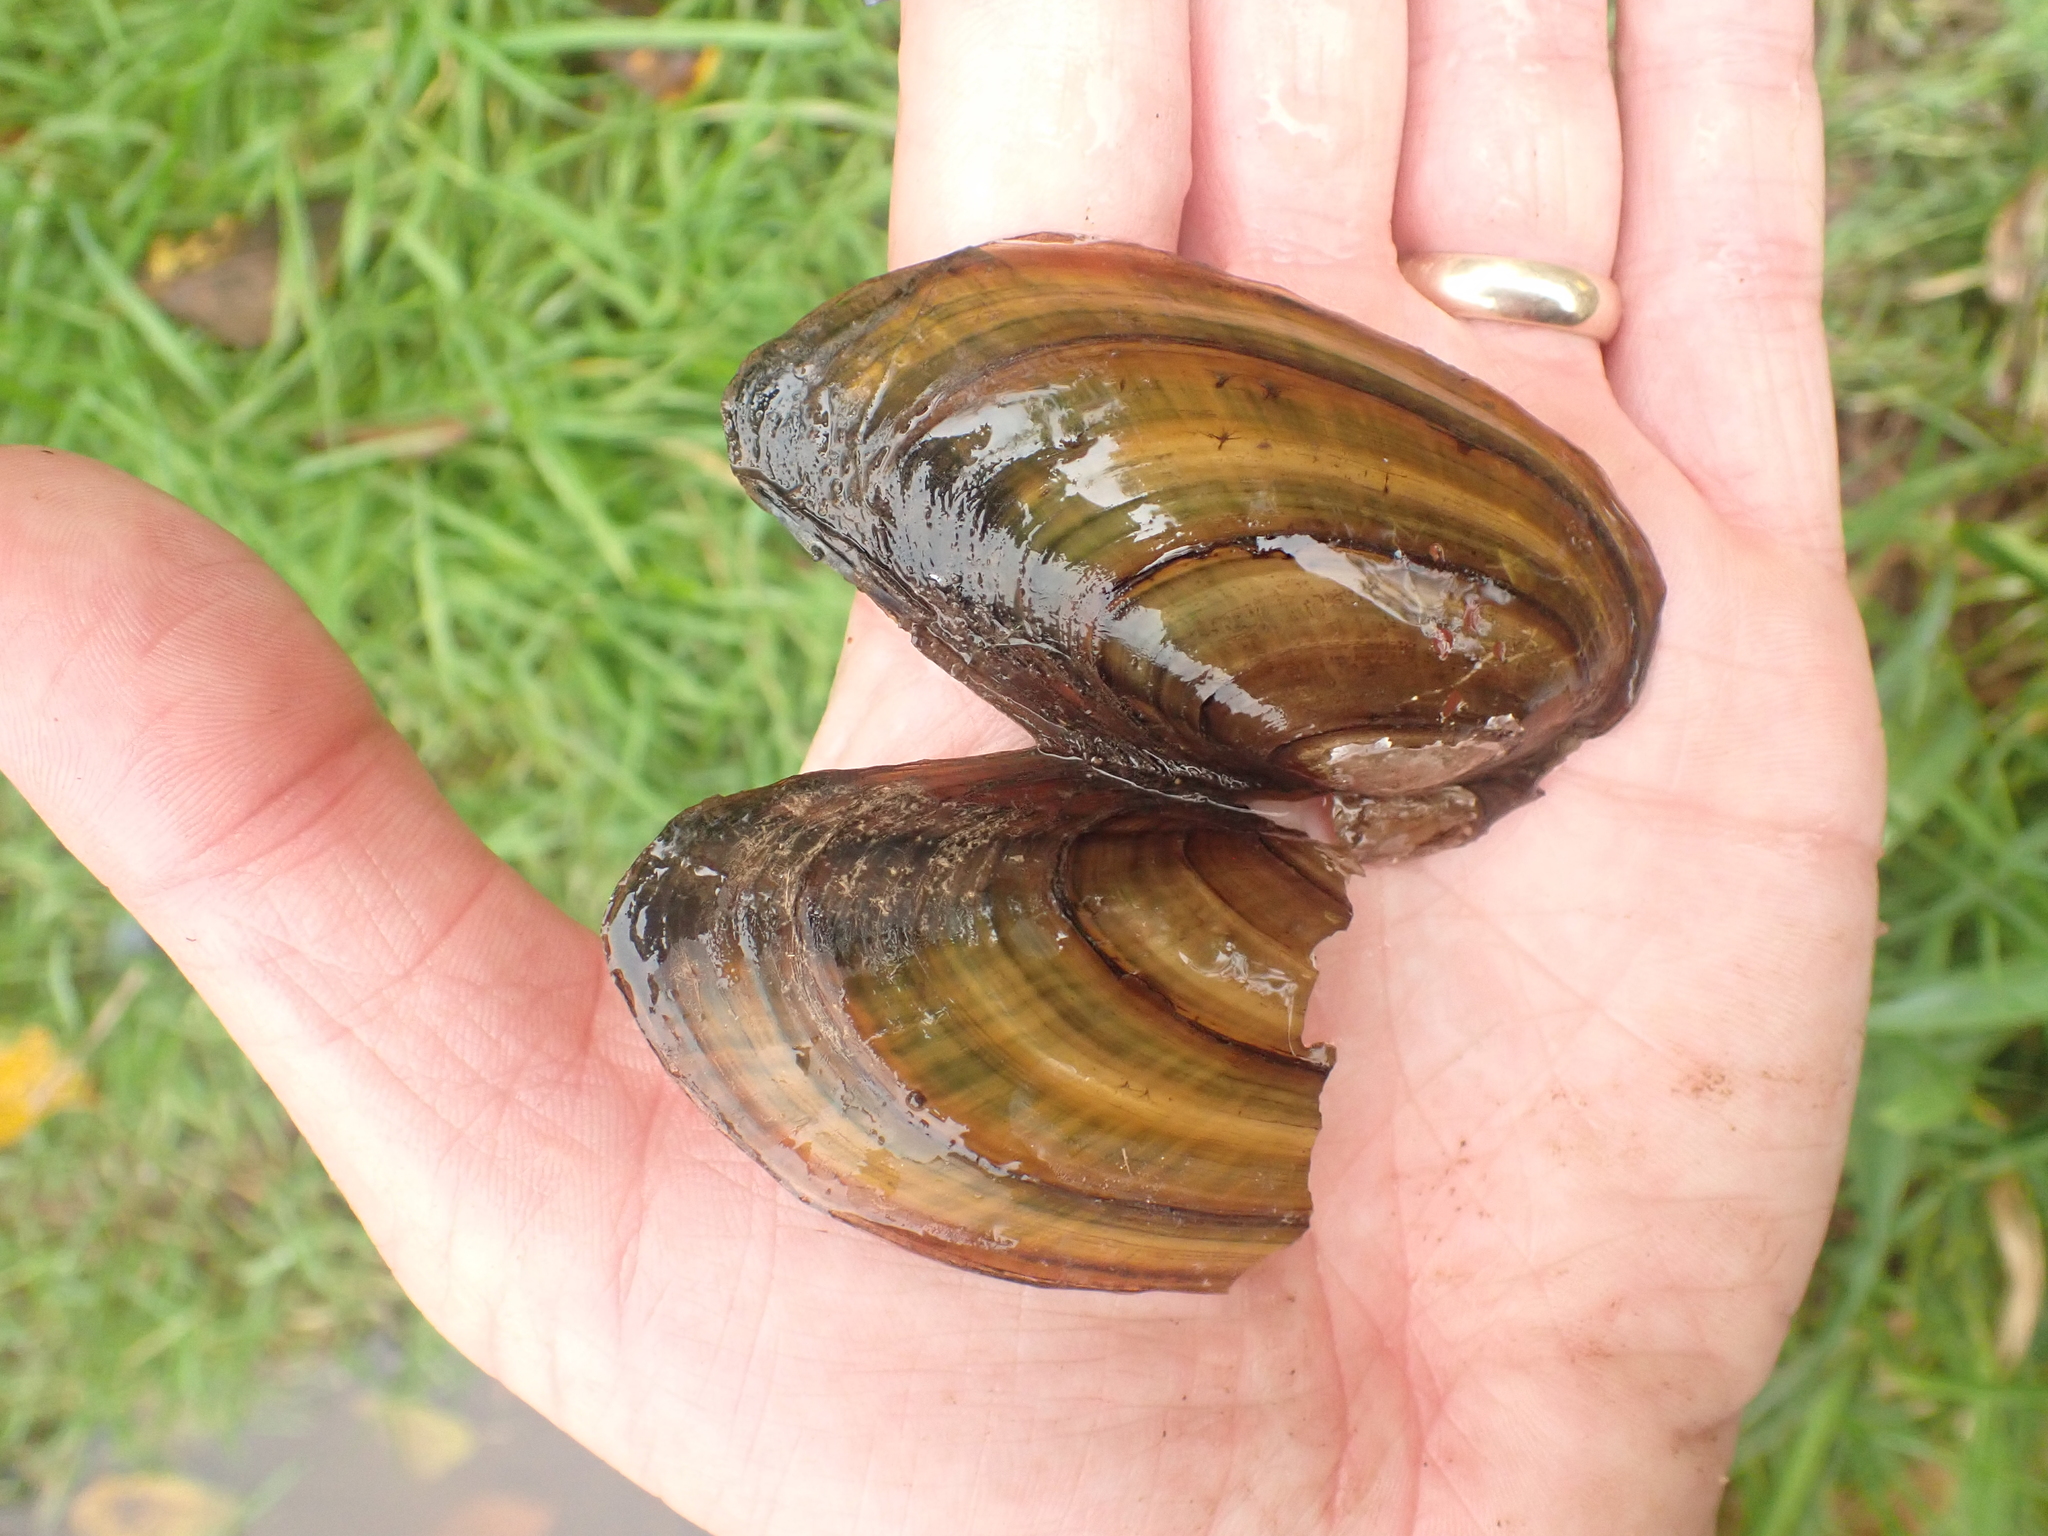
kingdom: Animalia
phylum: Mollusca
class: Bivalvia
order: Unionida
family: Unionidae
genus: Pyganodon
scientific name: Pyganodon cataracta
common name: Eastern floater
